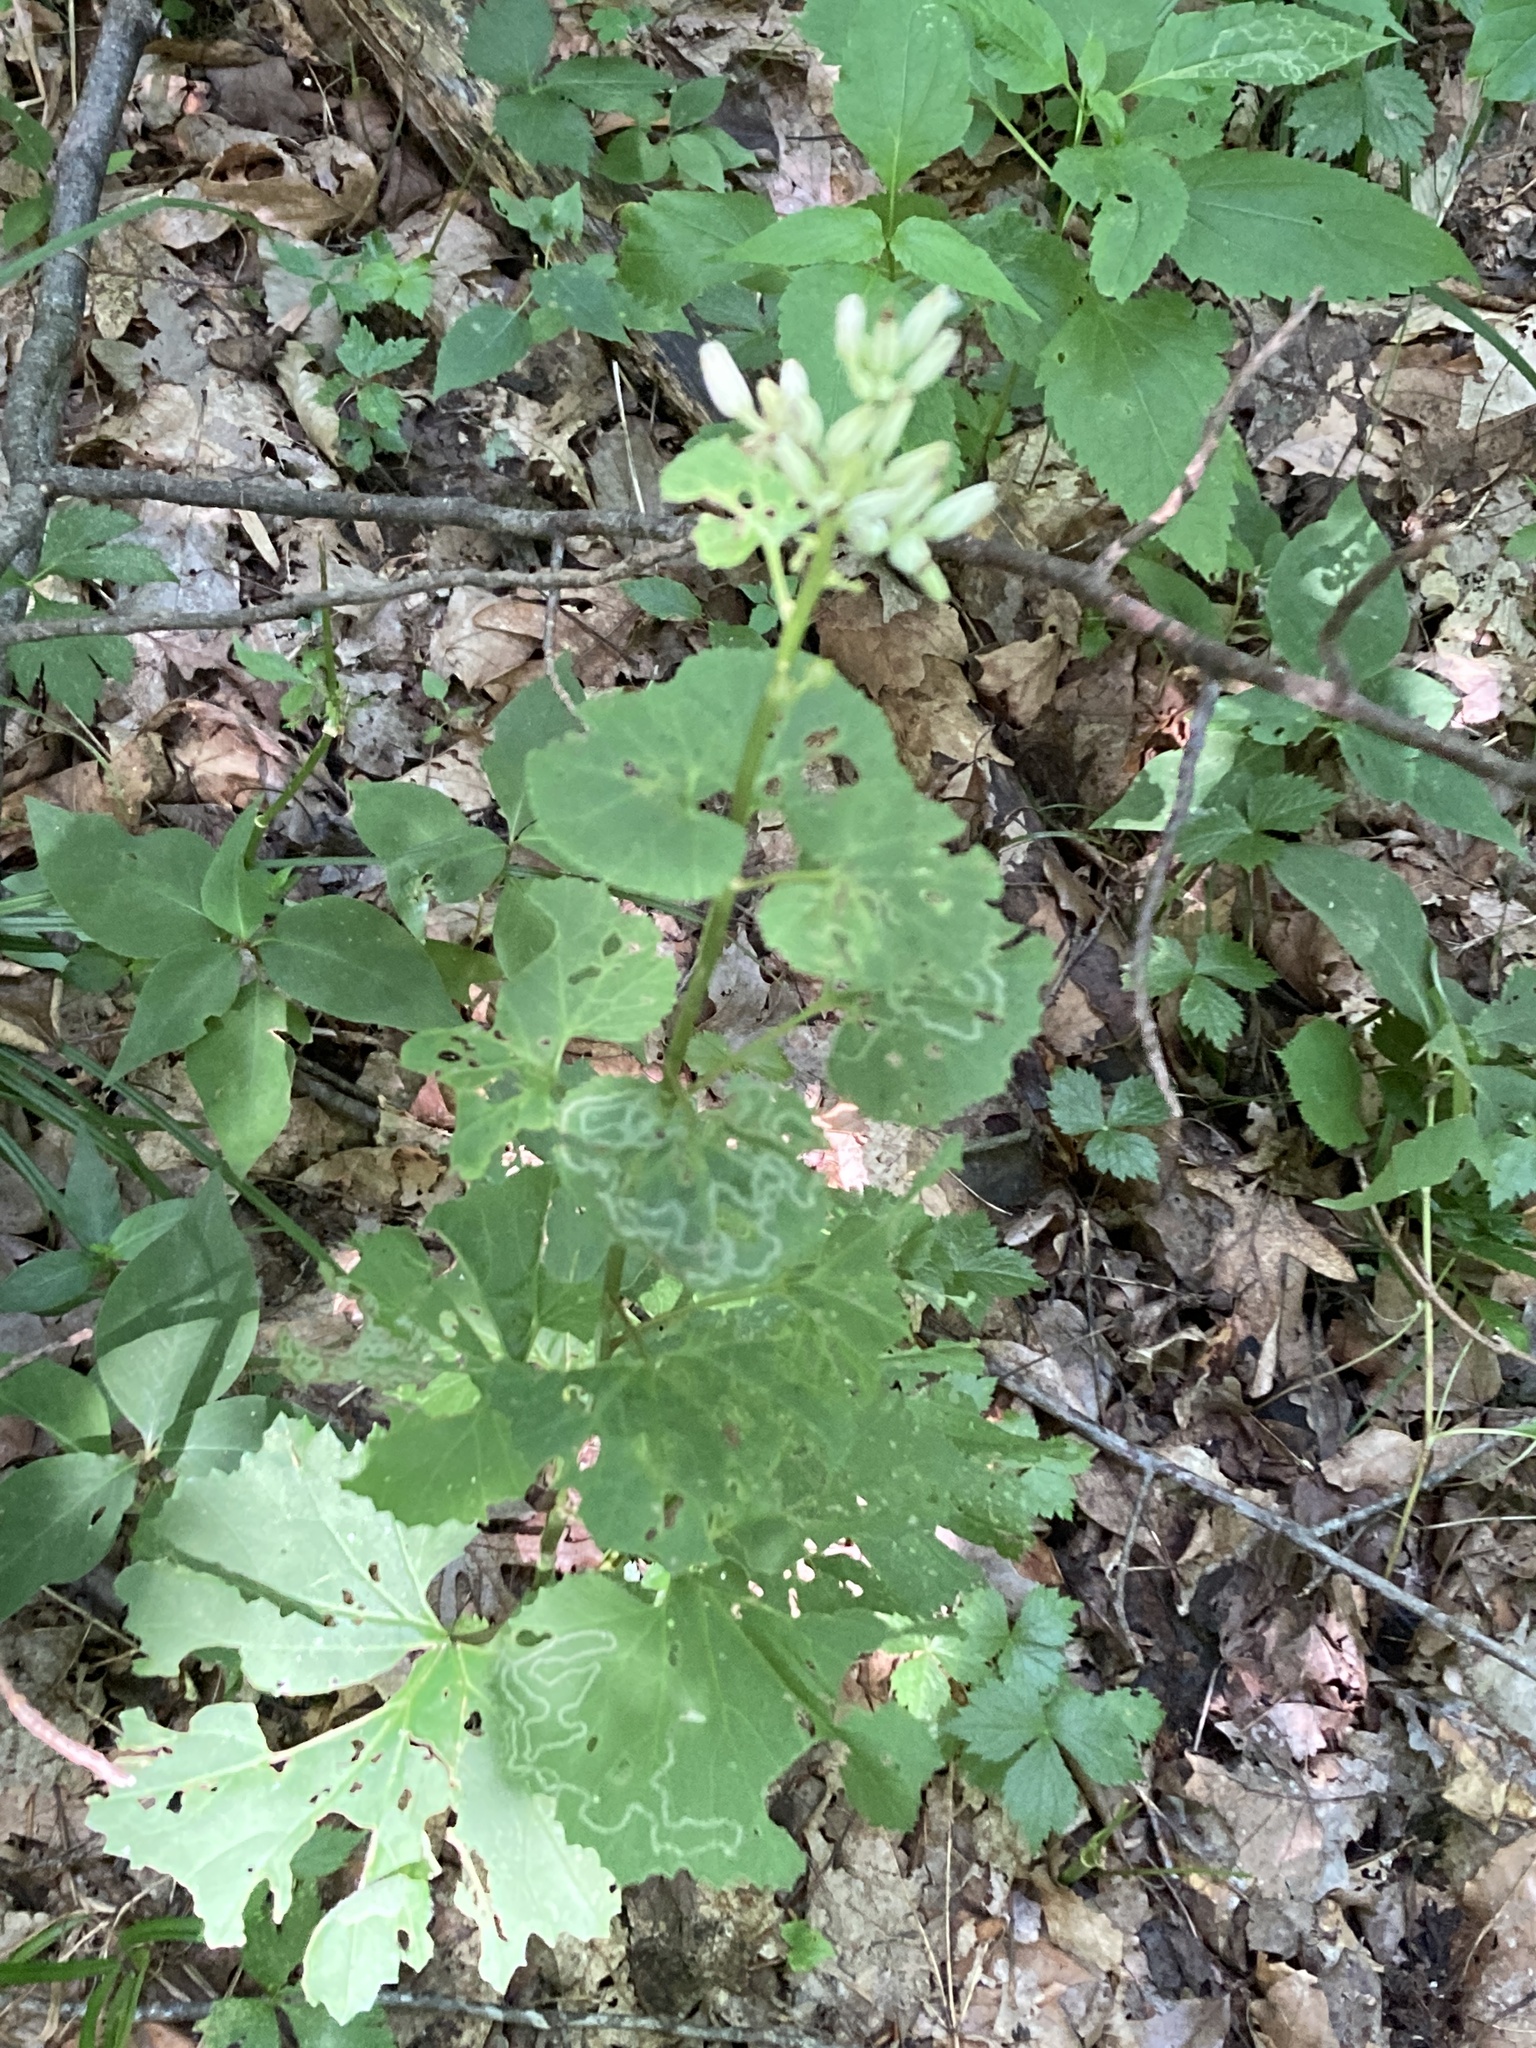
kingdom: Plantae
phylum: Tracheophyta
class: Magnoliopsida
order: Asterales
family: Asteraceae
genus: Arnoglossum
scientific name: Arnoglossum reniforme
